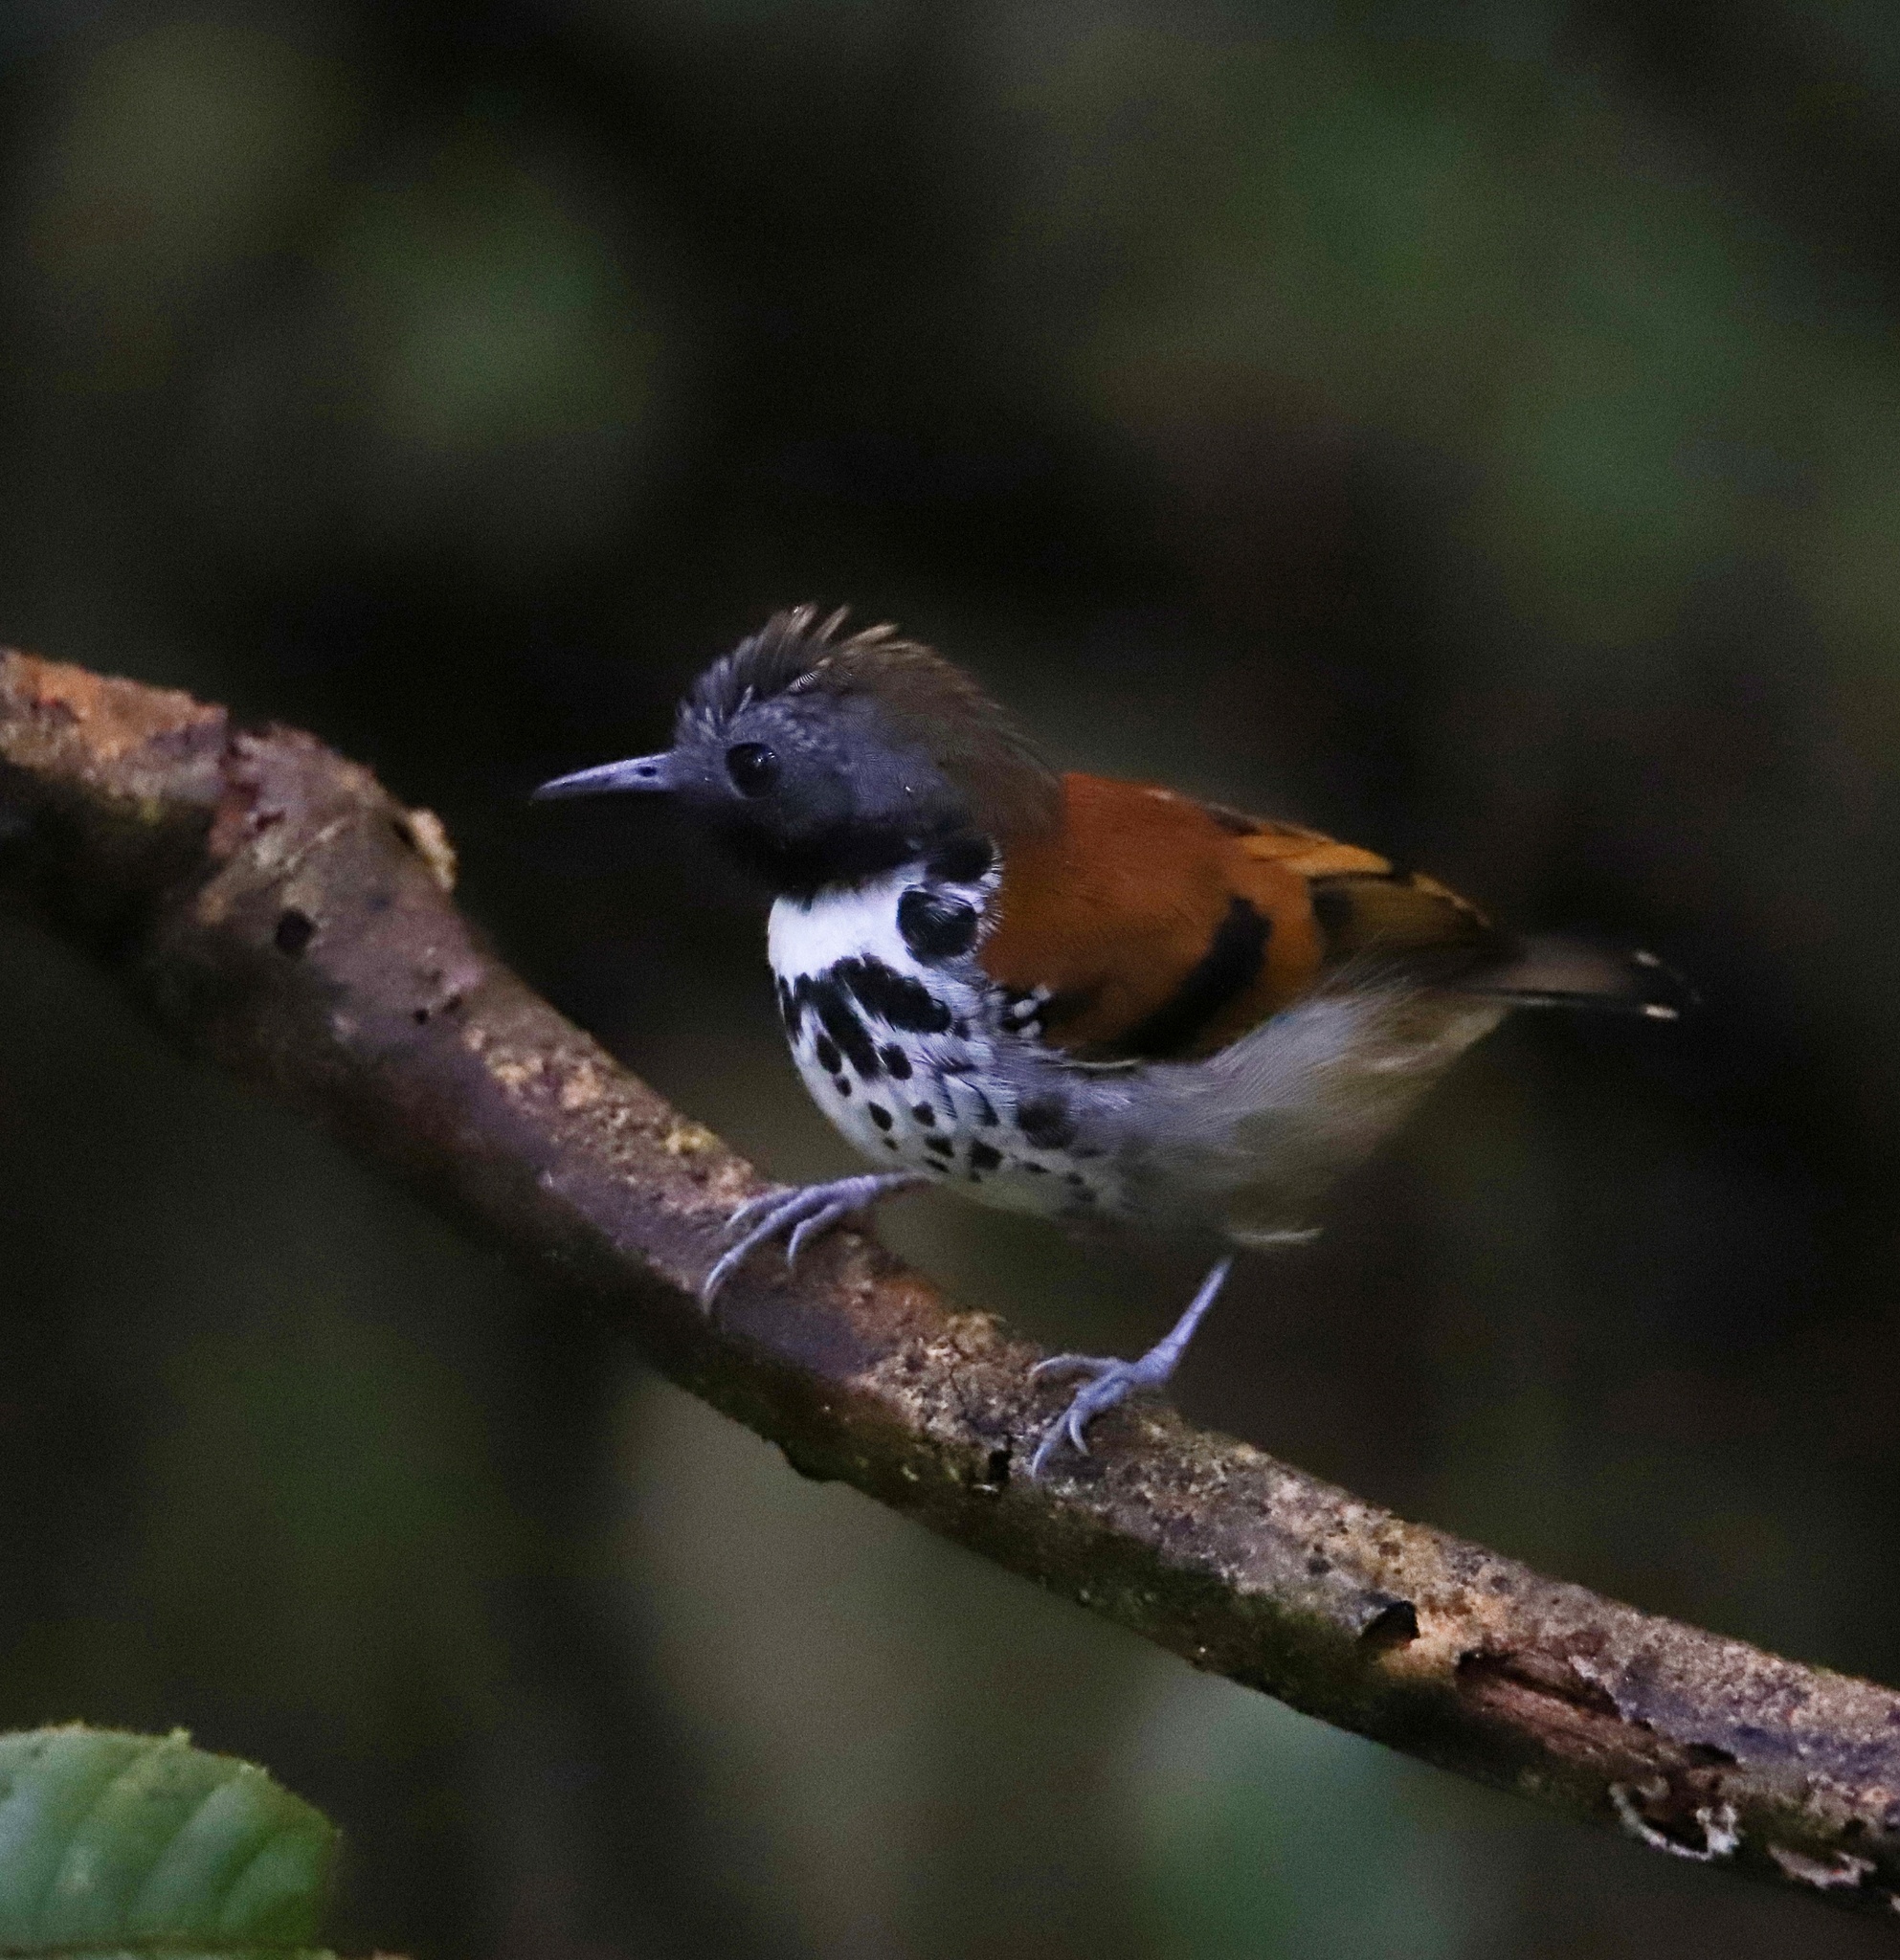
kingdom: Animalia
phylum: Chordata
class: Aves
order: Passeriformes
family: Thamnophilidae
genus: Hylophylax
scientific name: Hylophylax naevioides
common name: Spotted antbird
